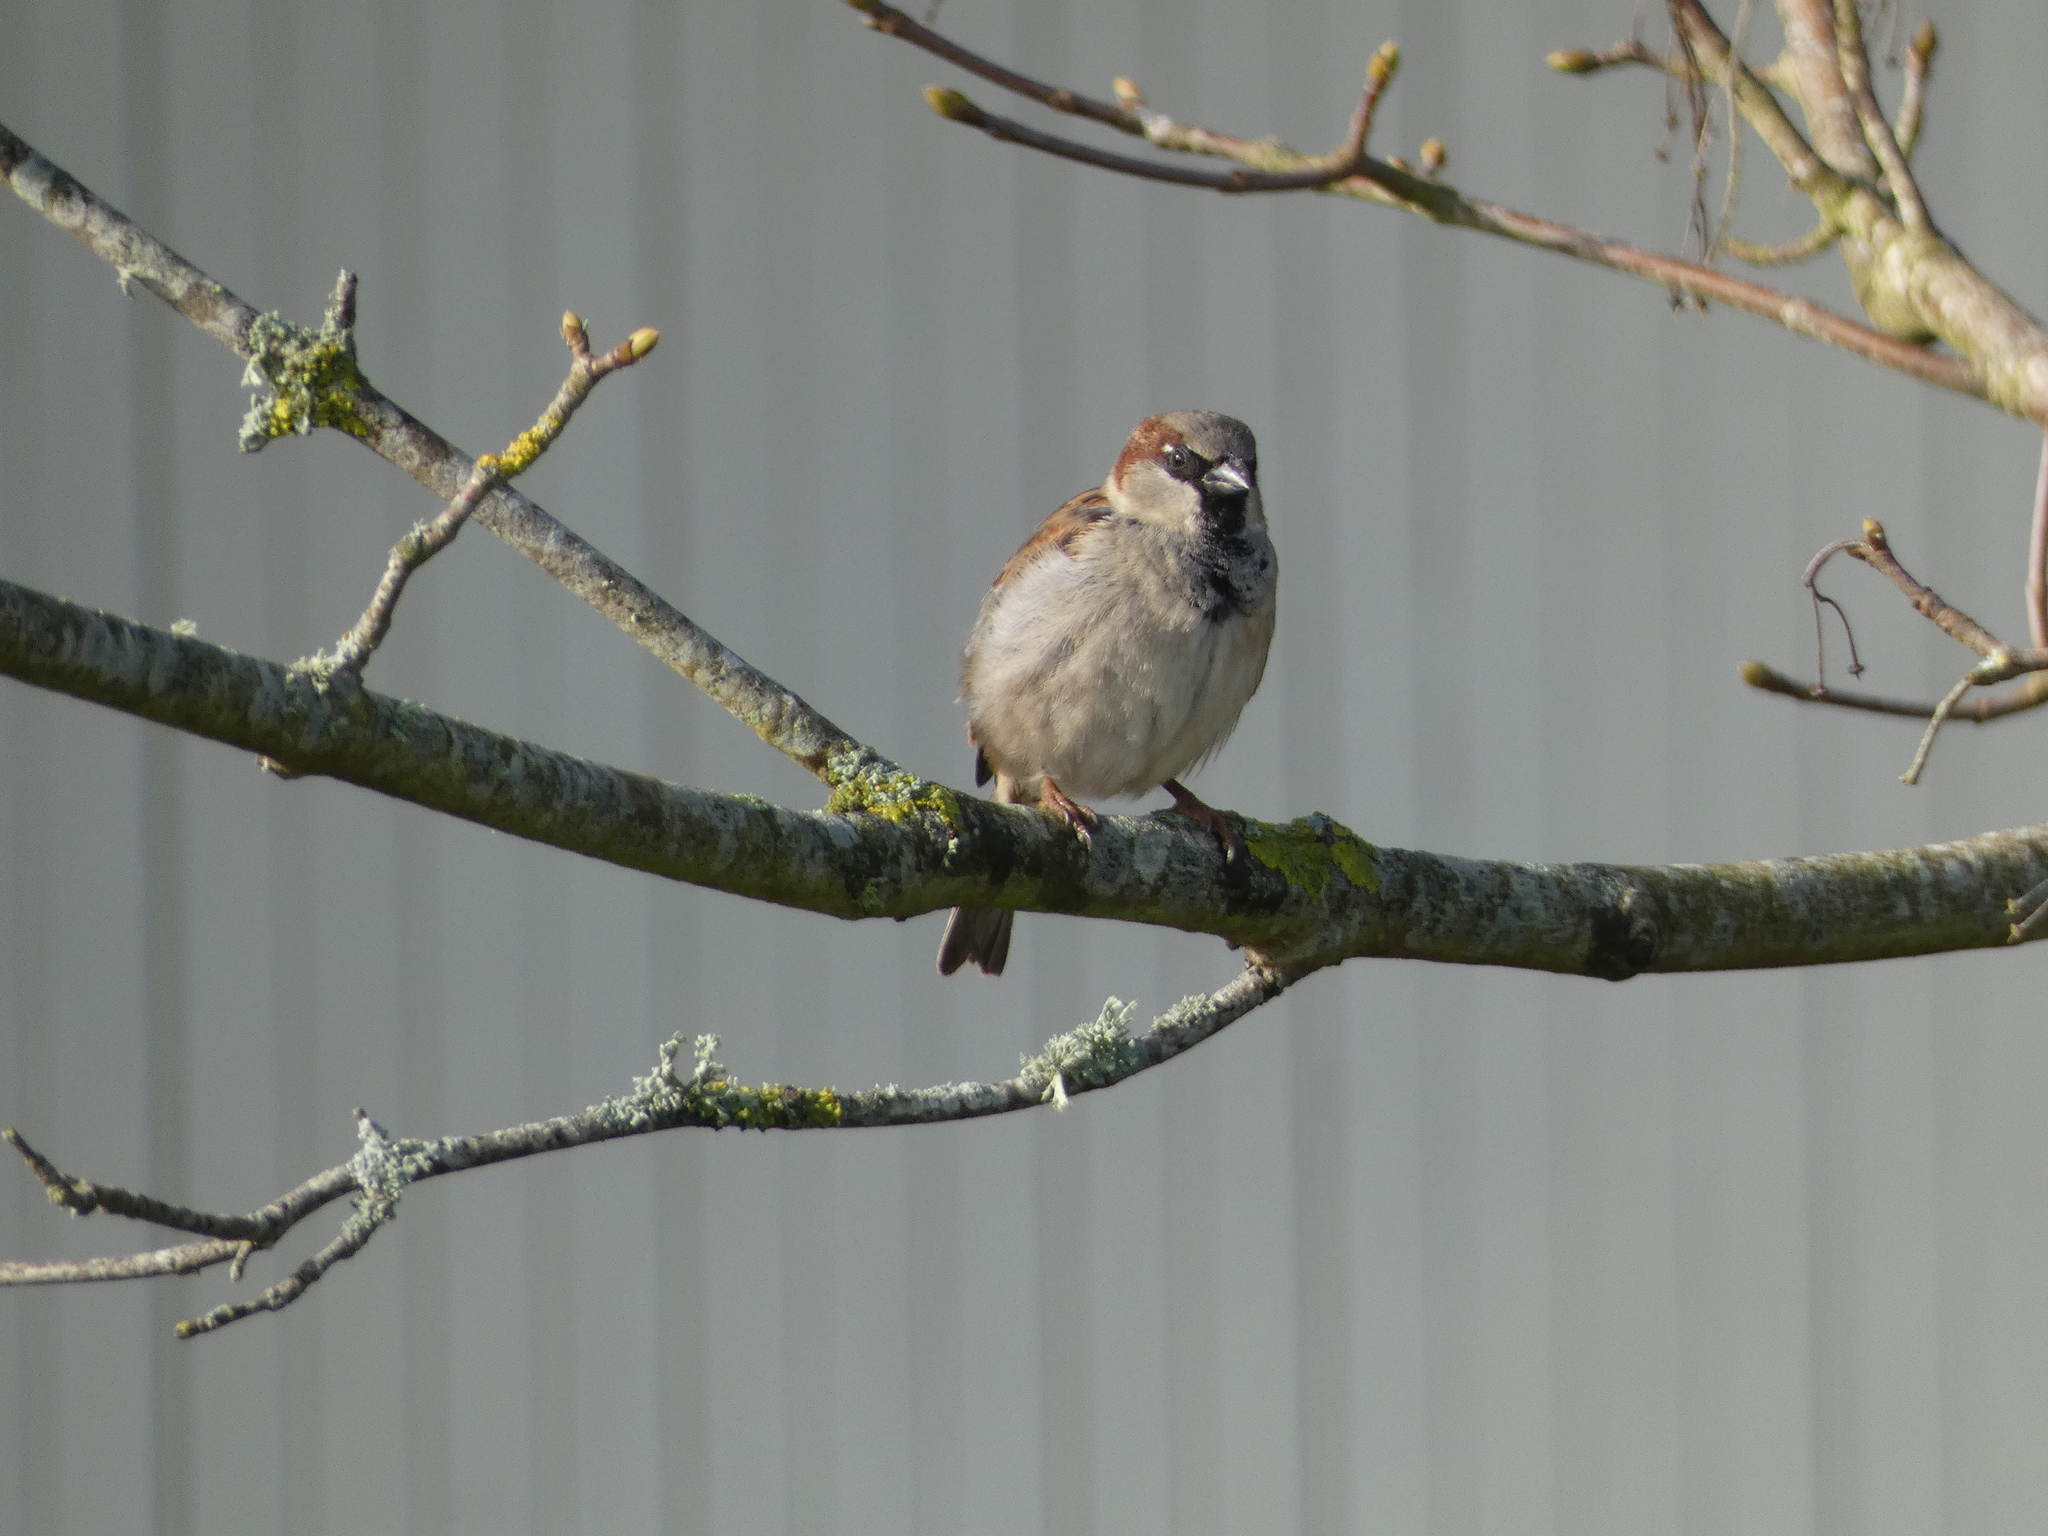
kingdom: Animalia
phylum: Chordata
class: Aves
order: Passeriformes
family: Passeridae
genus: Passer
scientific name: Passer domesticus
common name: House sparrow
